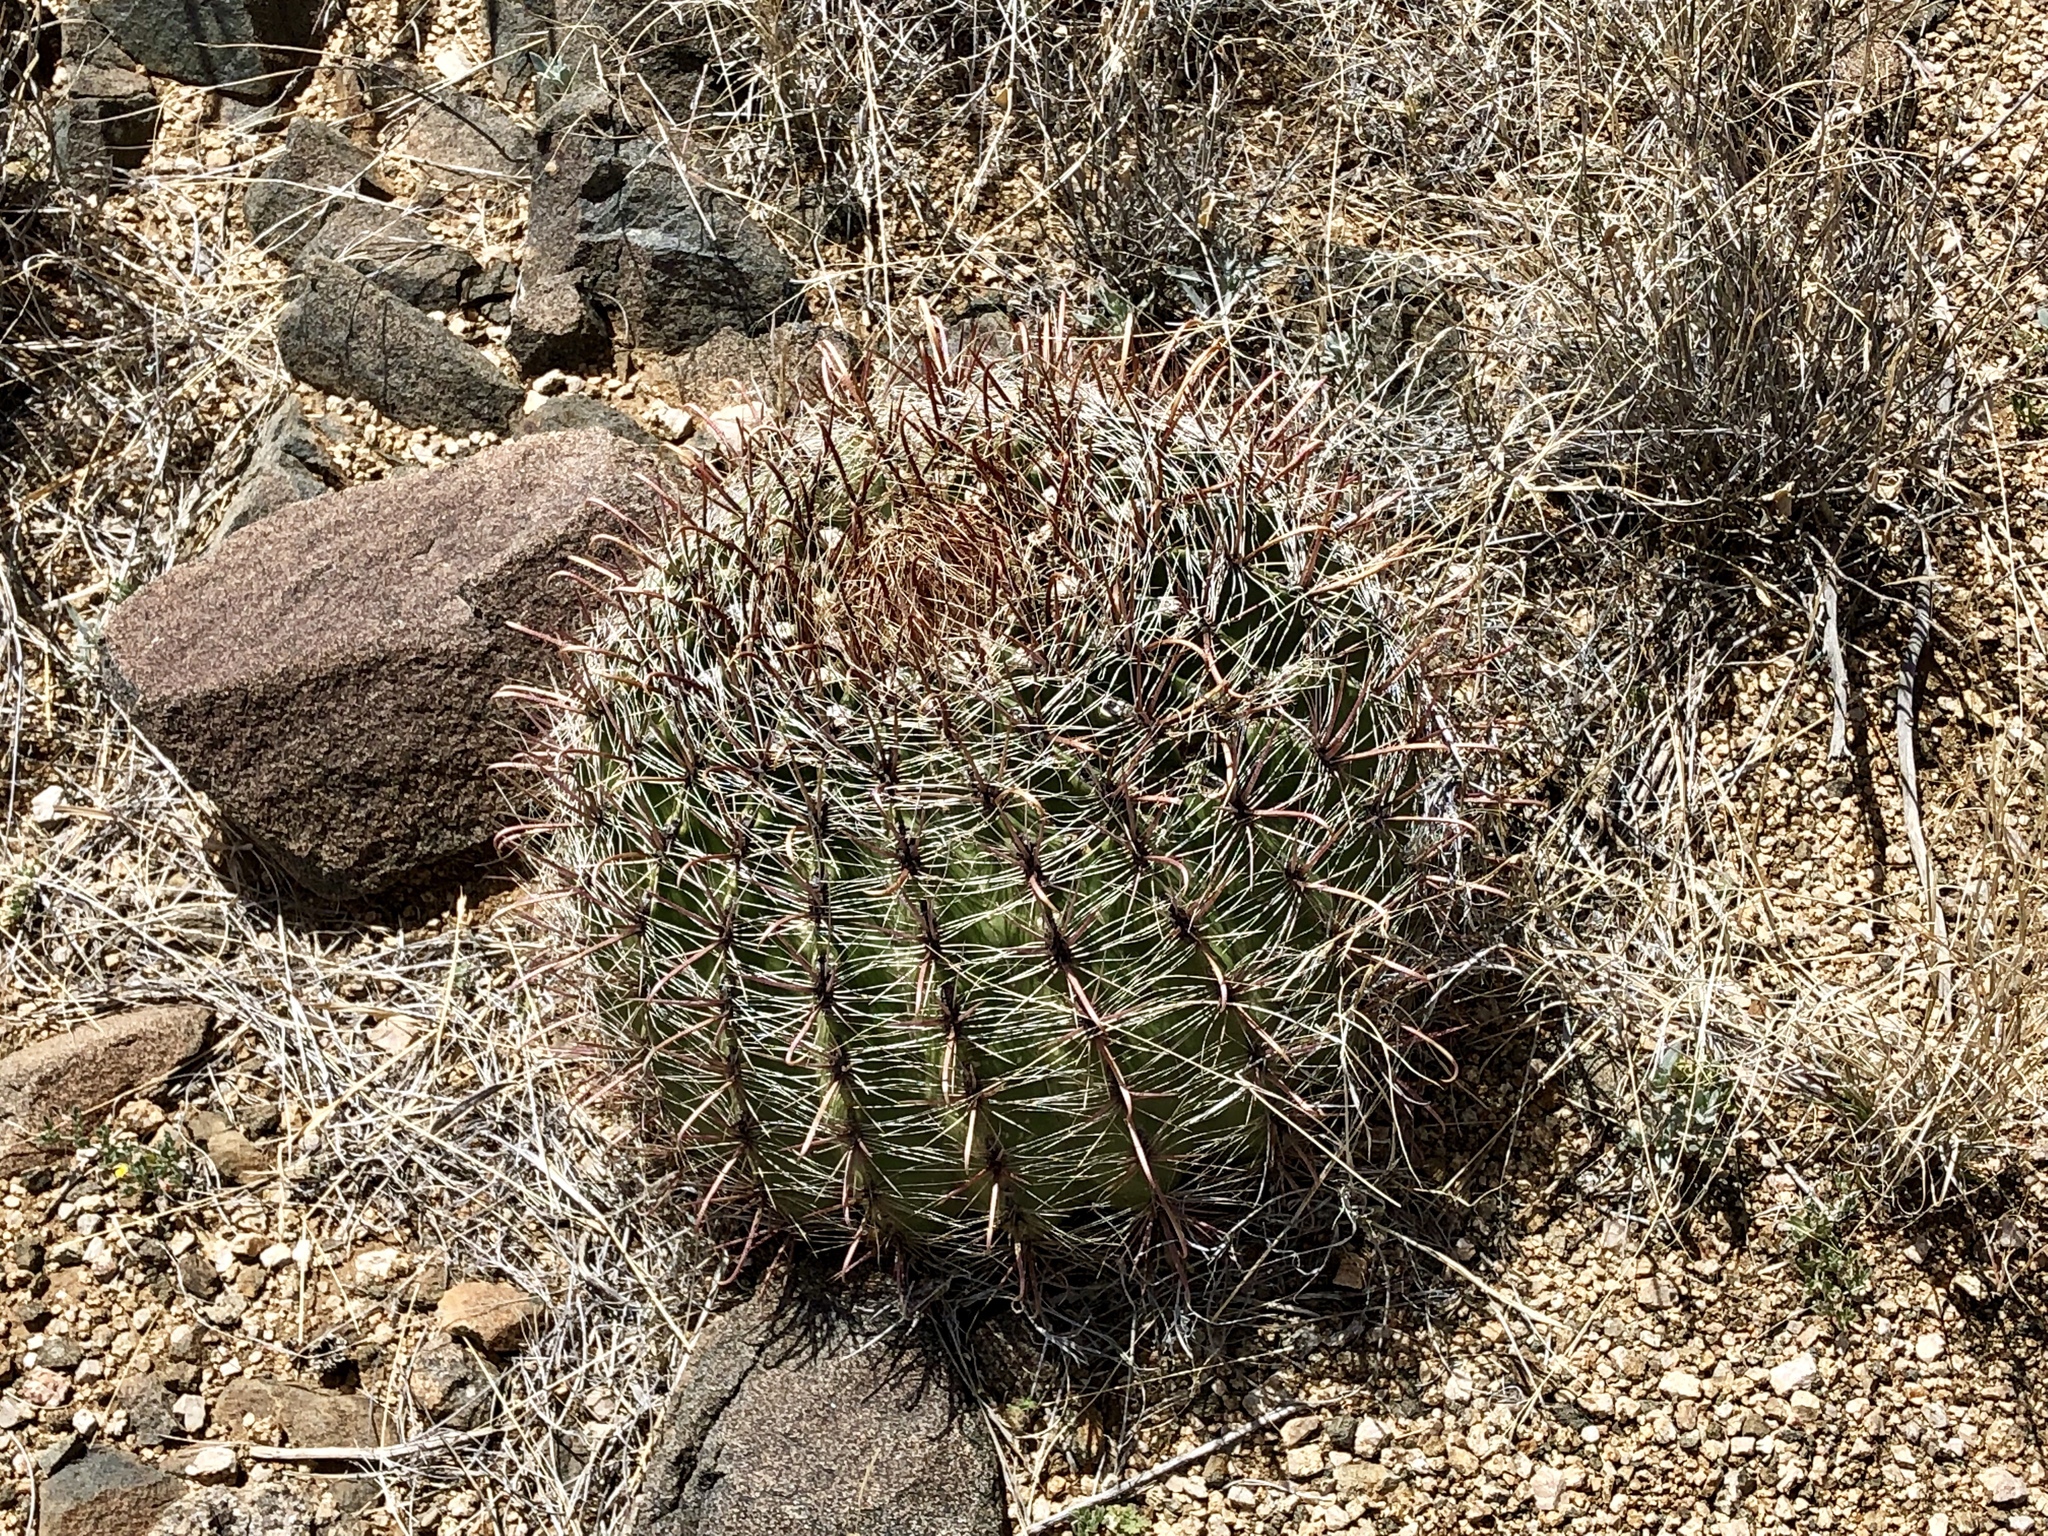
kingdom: Plantae
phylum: Tracheophyta
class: Magnoliopsida
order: Caryophyllales
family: Cactaceae
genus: Ferocactus
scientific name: Ferocactus wislizeni
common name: Candy barrel cactus
